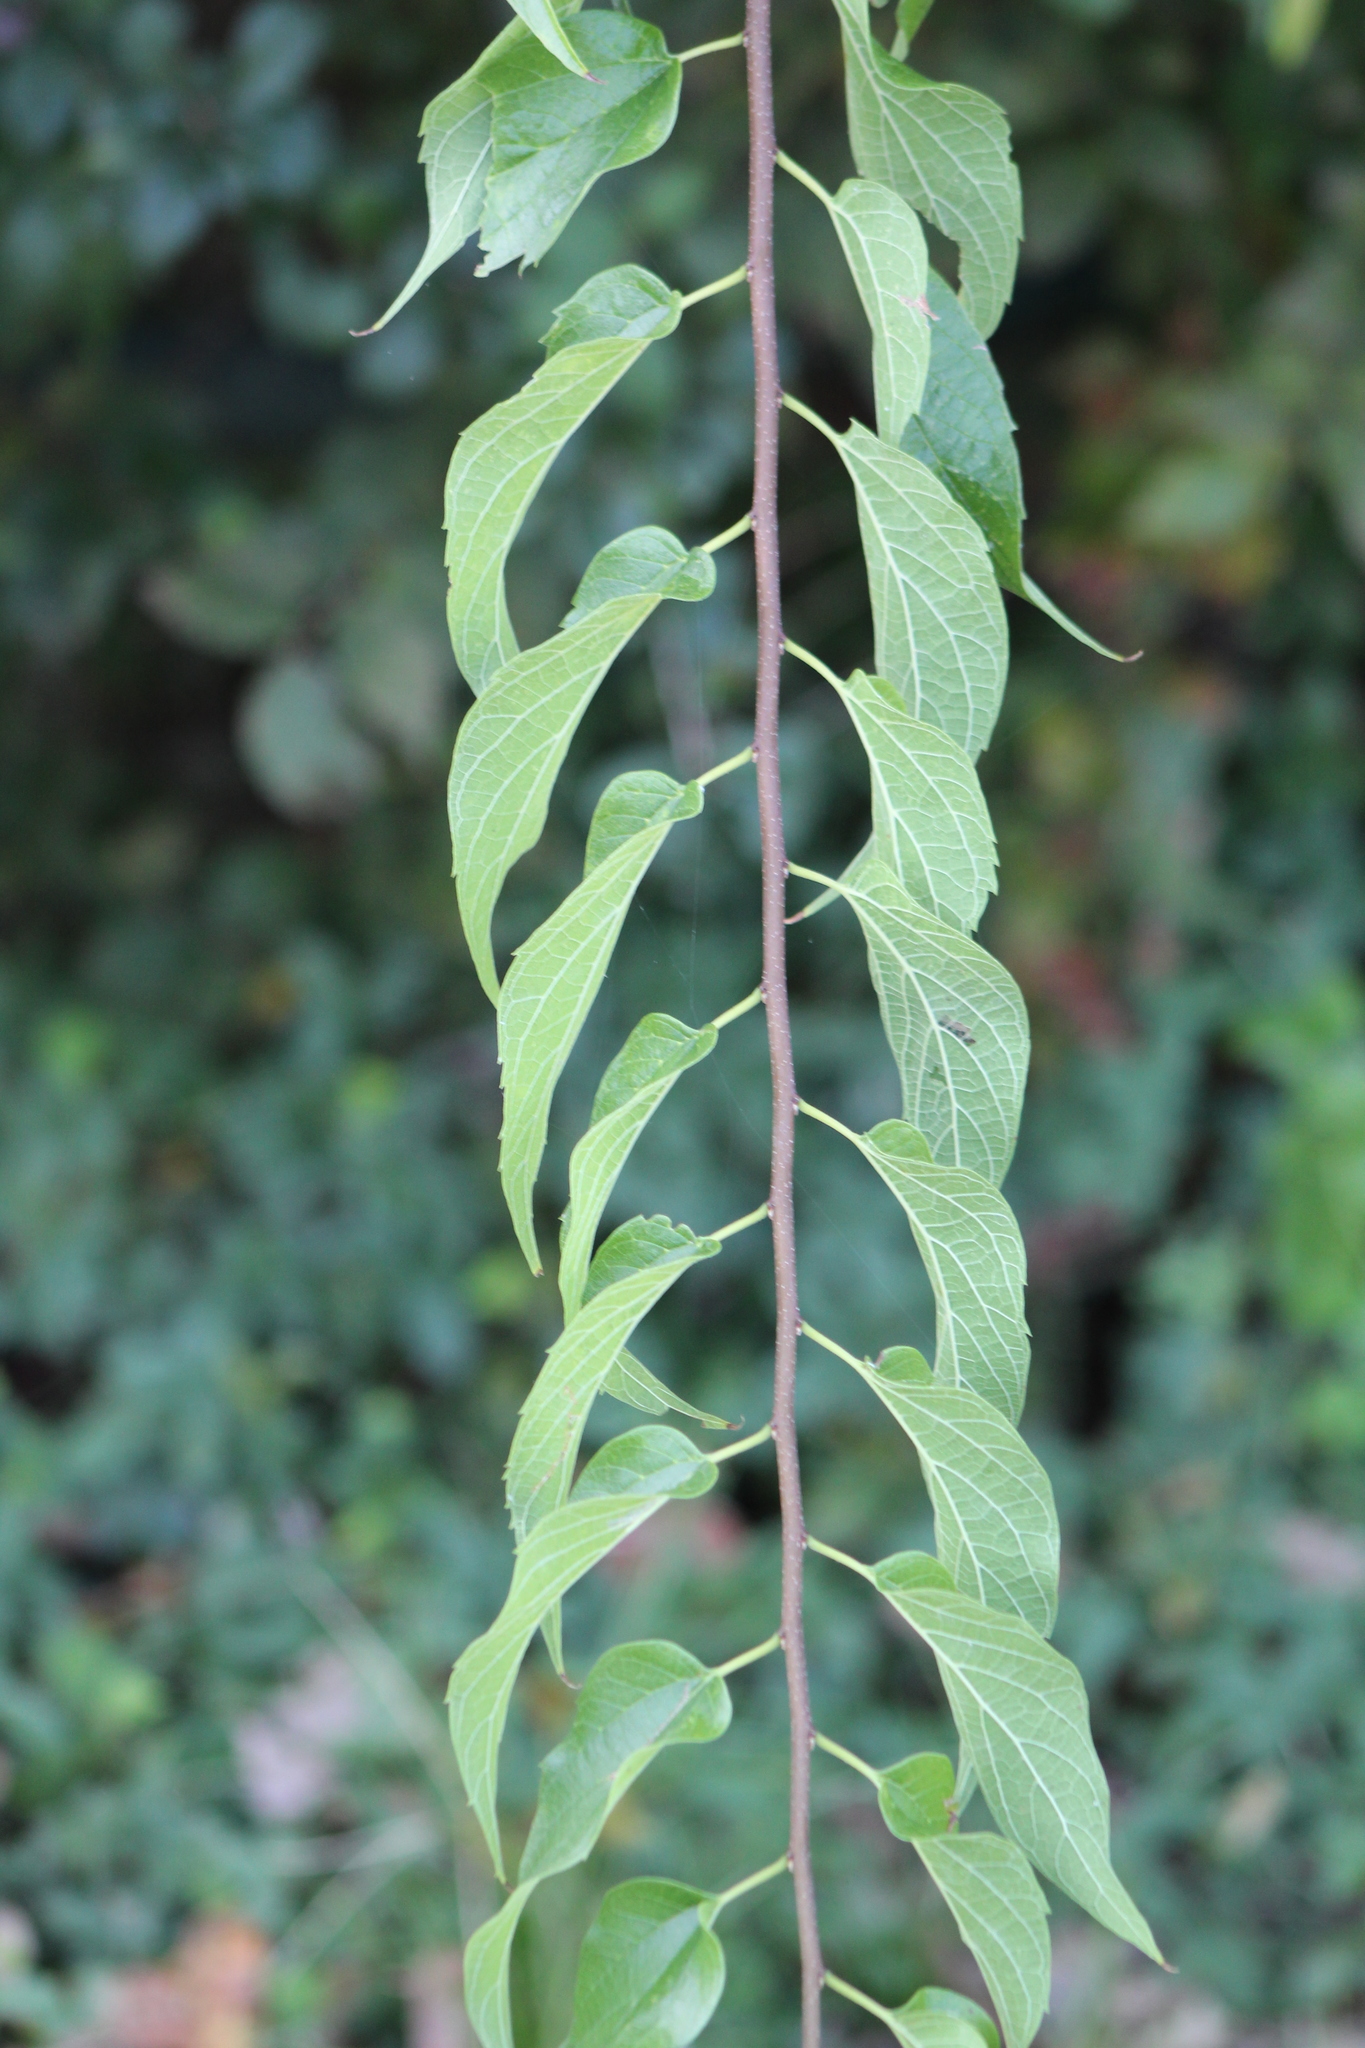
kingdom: Plantae
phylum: Tracheophyta
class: Magnoliopsida
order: Rosales
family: Cannabaceae
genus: Celtis
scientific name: Celtis laevigata
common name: Sugarberry
